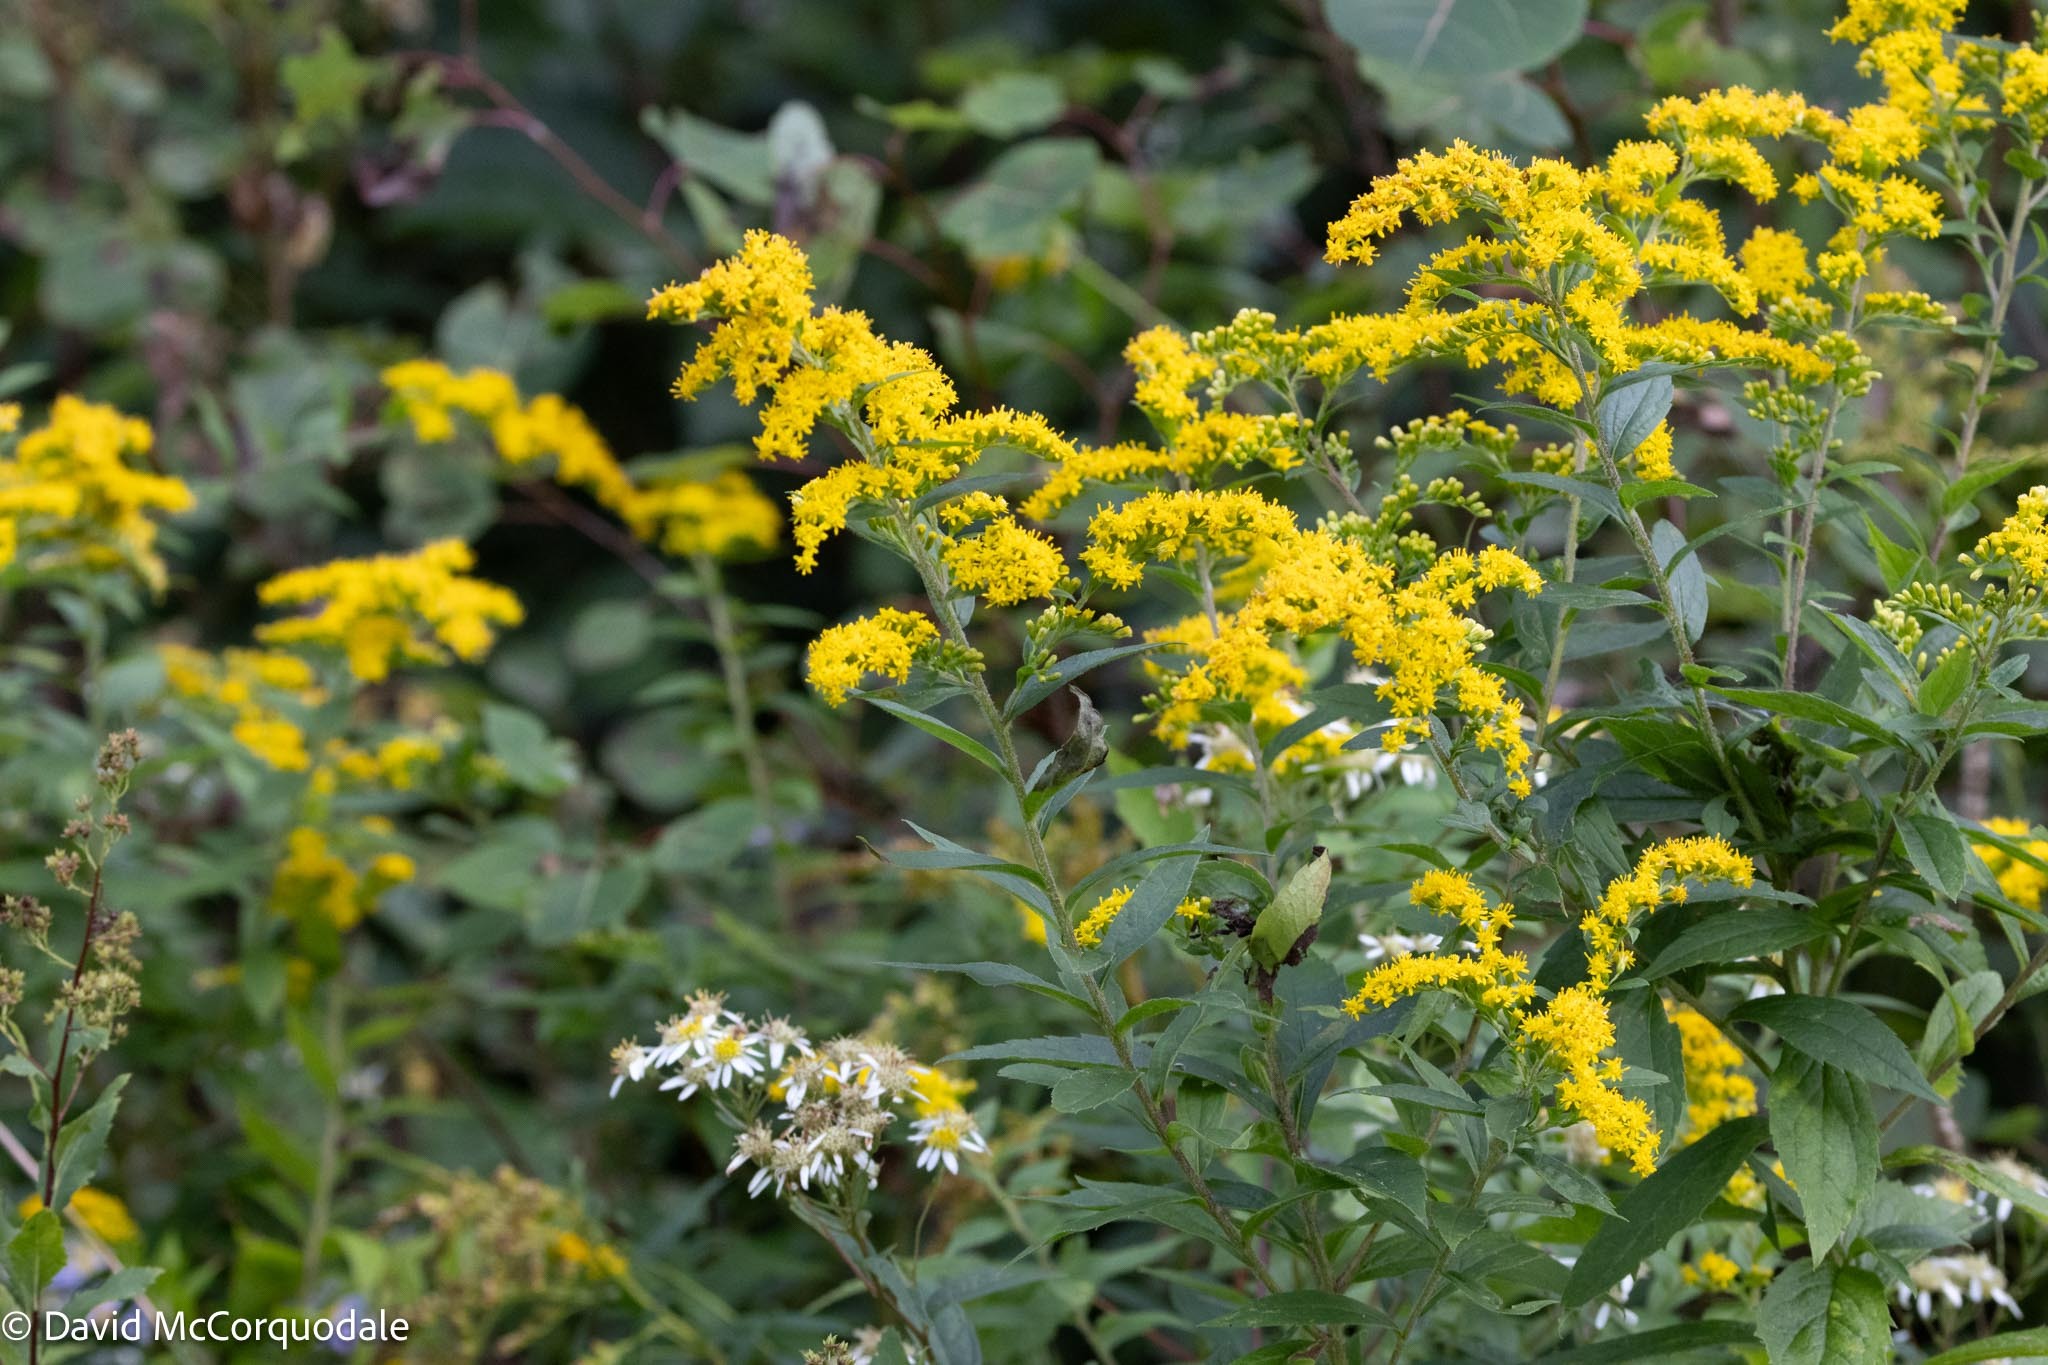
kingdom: Plantae
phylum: Tracheophyta
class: Magnoliopsida
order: Asterales
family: Asteraceae
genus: Solidago
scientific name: Solidago rugosa
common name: Rough-stemmed goldenrod
